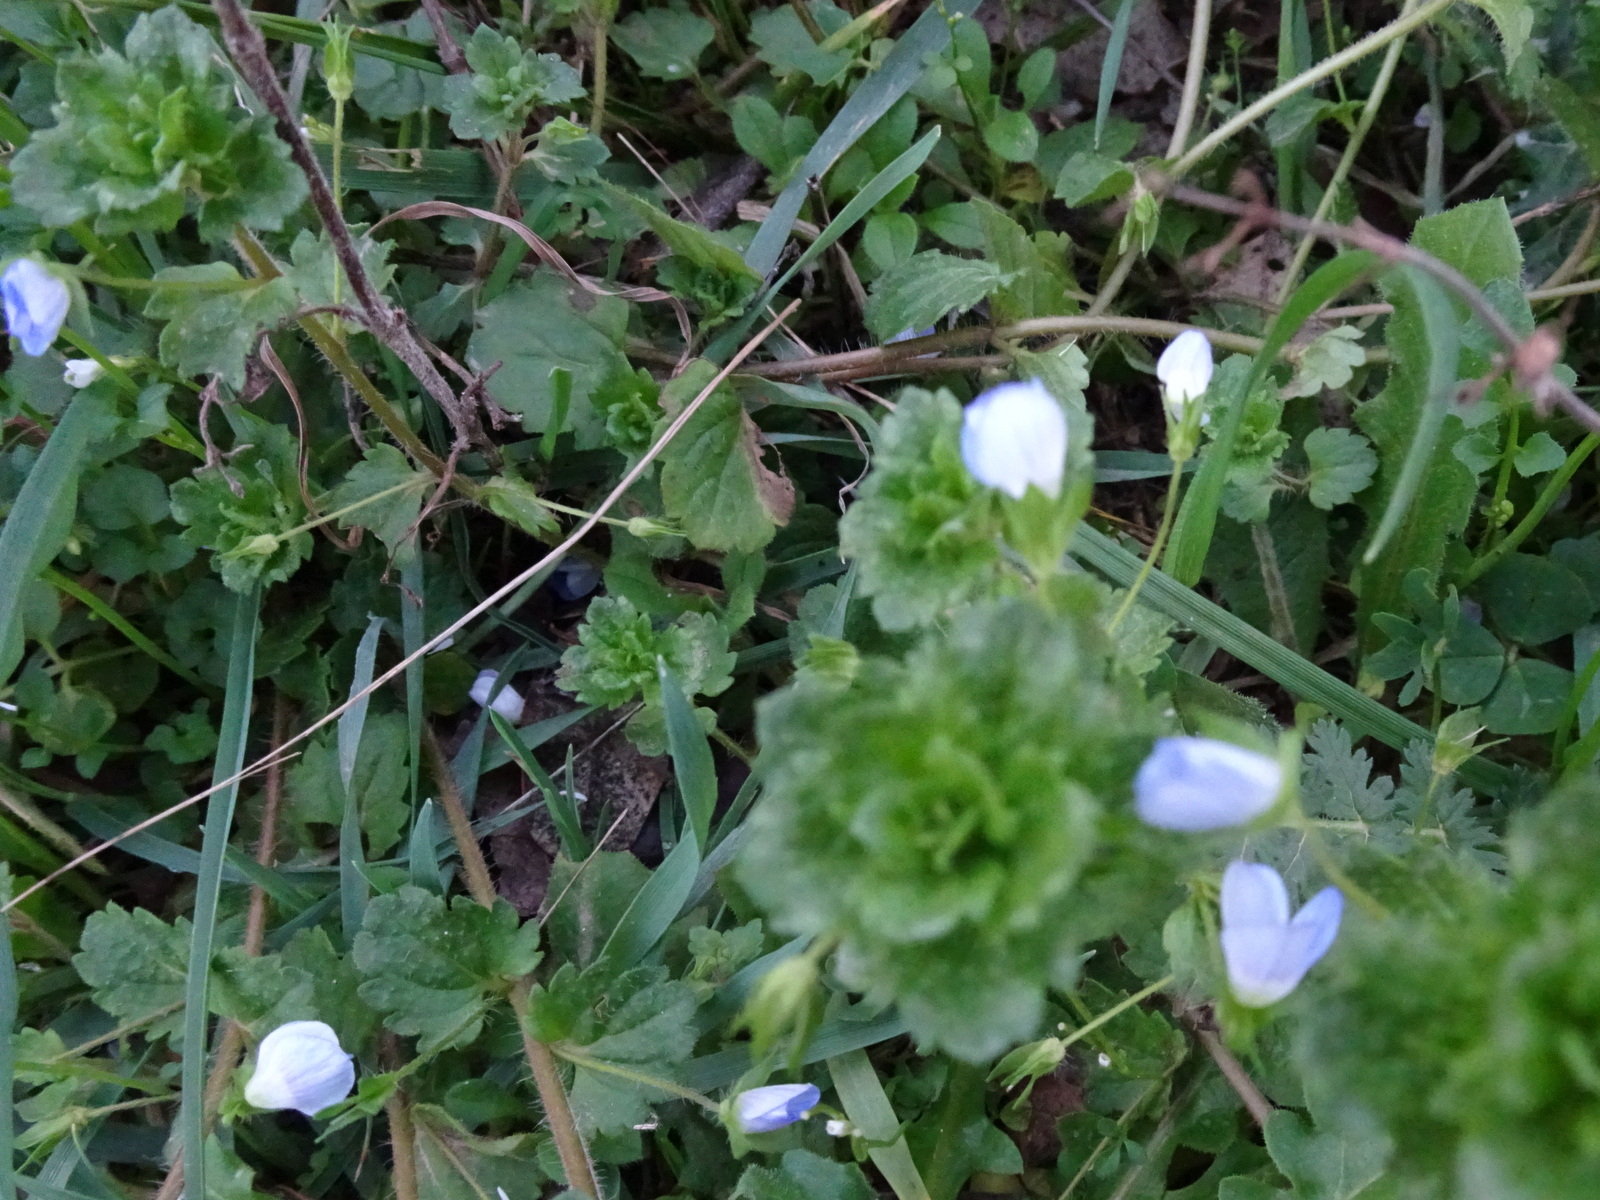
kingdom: Plantae
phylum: Tracheophyta
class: Magnoliopsida
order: Lamiales
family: Plantaginaceae
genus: Veronica
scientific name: Veronica persica
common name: Common field-speedwell
